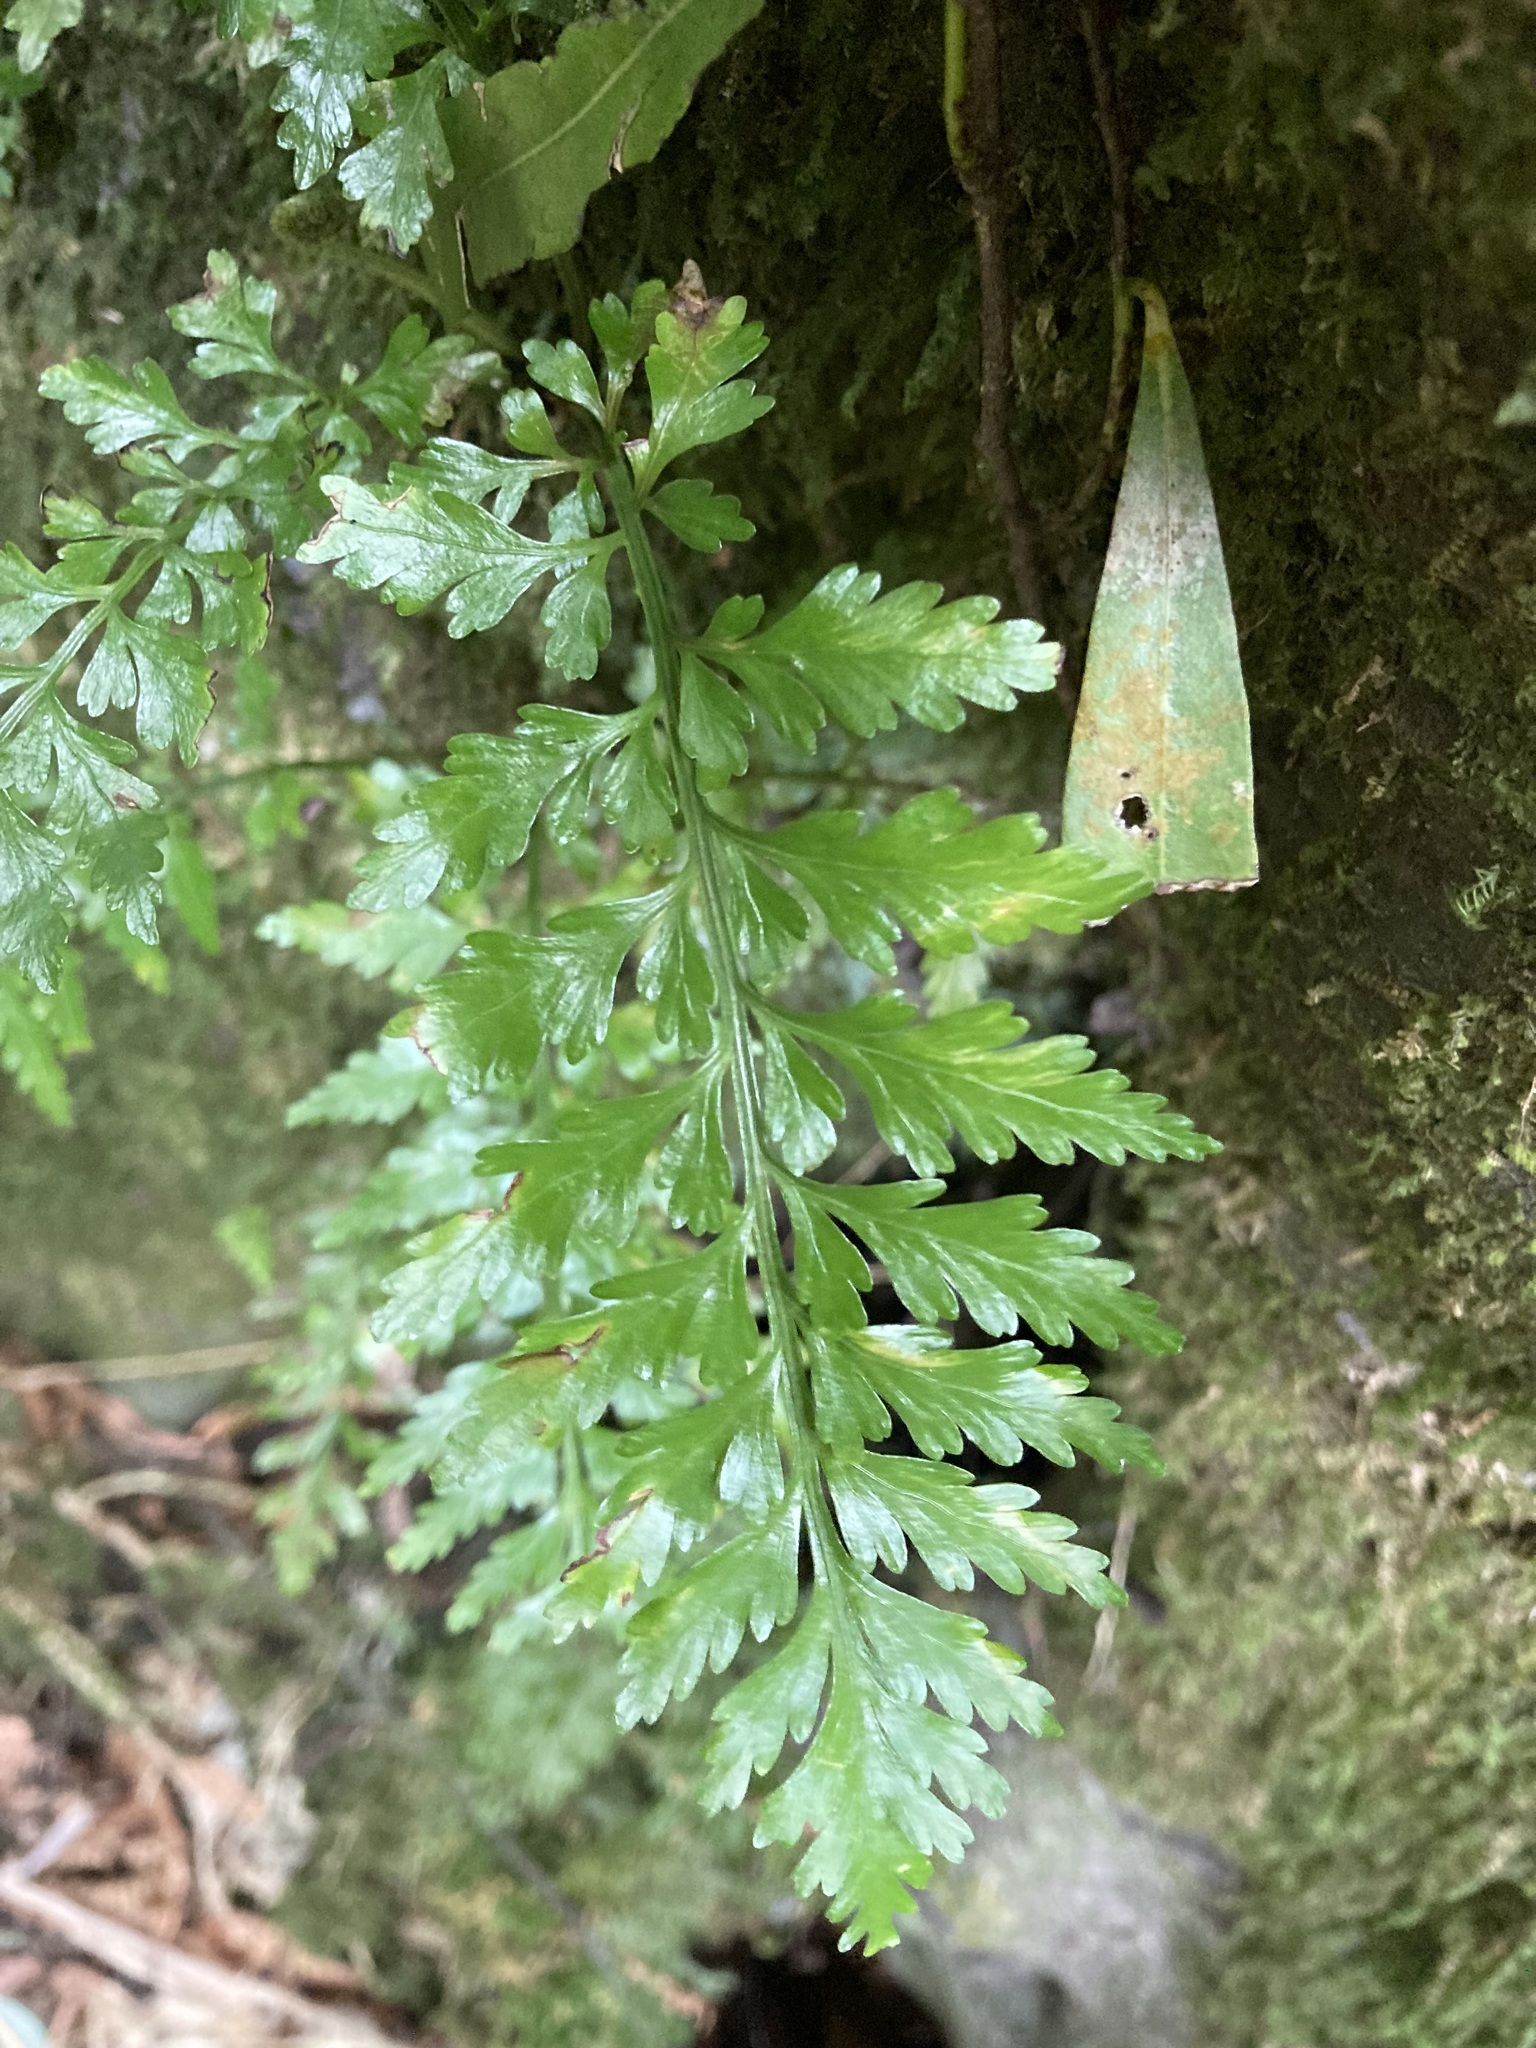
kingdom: Plantae
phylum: Tracheophyta
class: Polypodiopsida
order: Polypodiales
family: Aspleniaceae
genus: Asplenium
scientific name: Asplenium lamprophyllum
